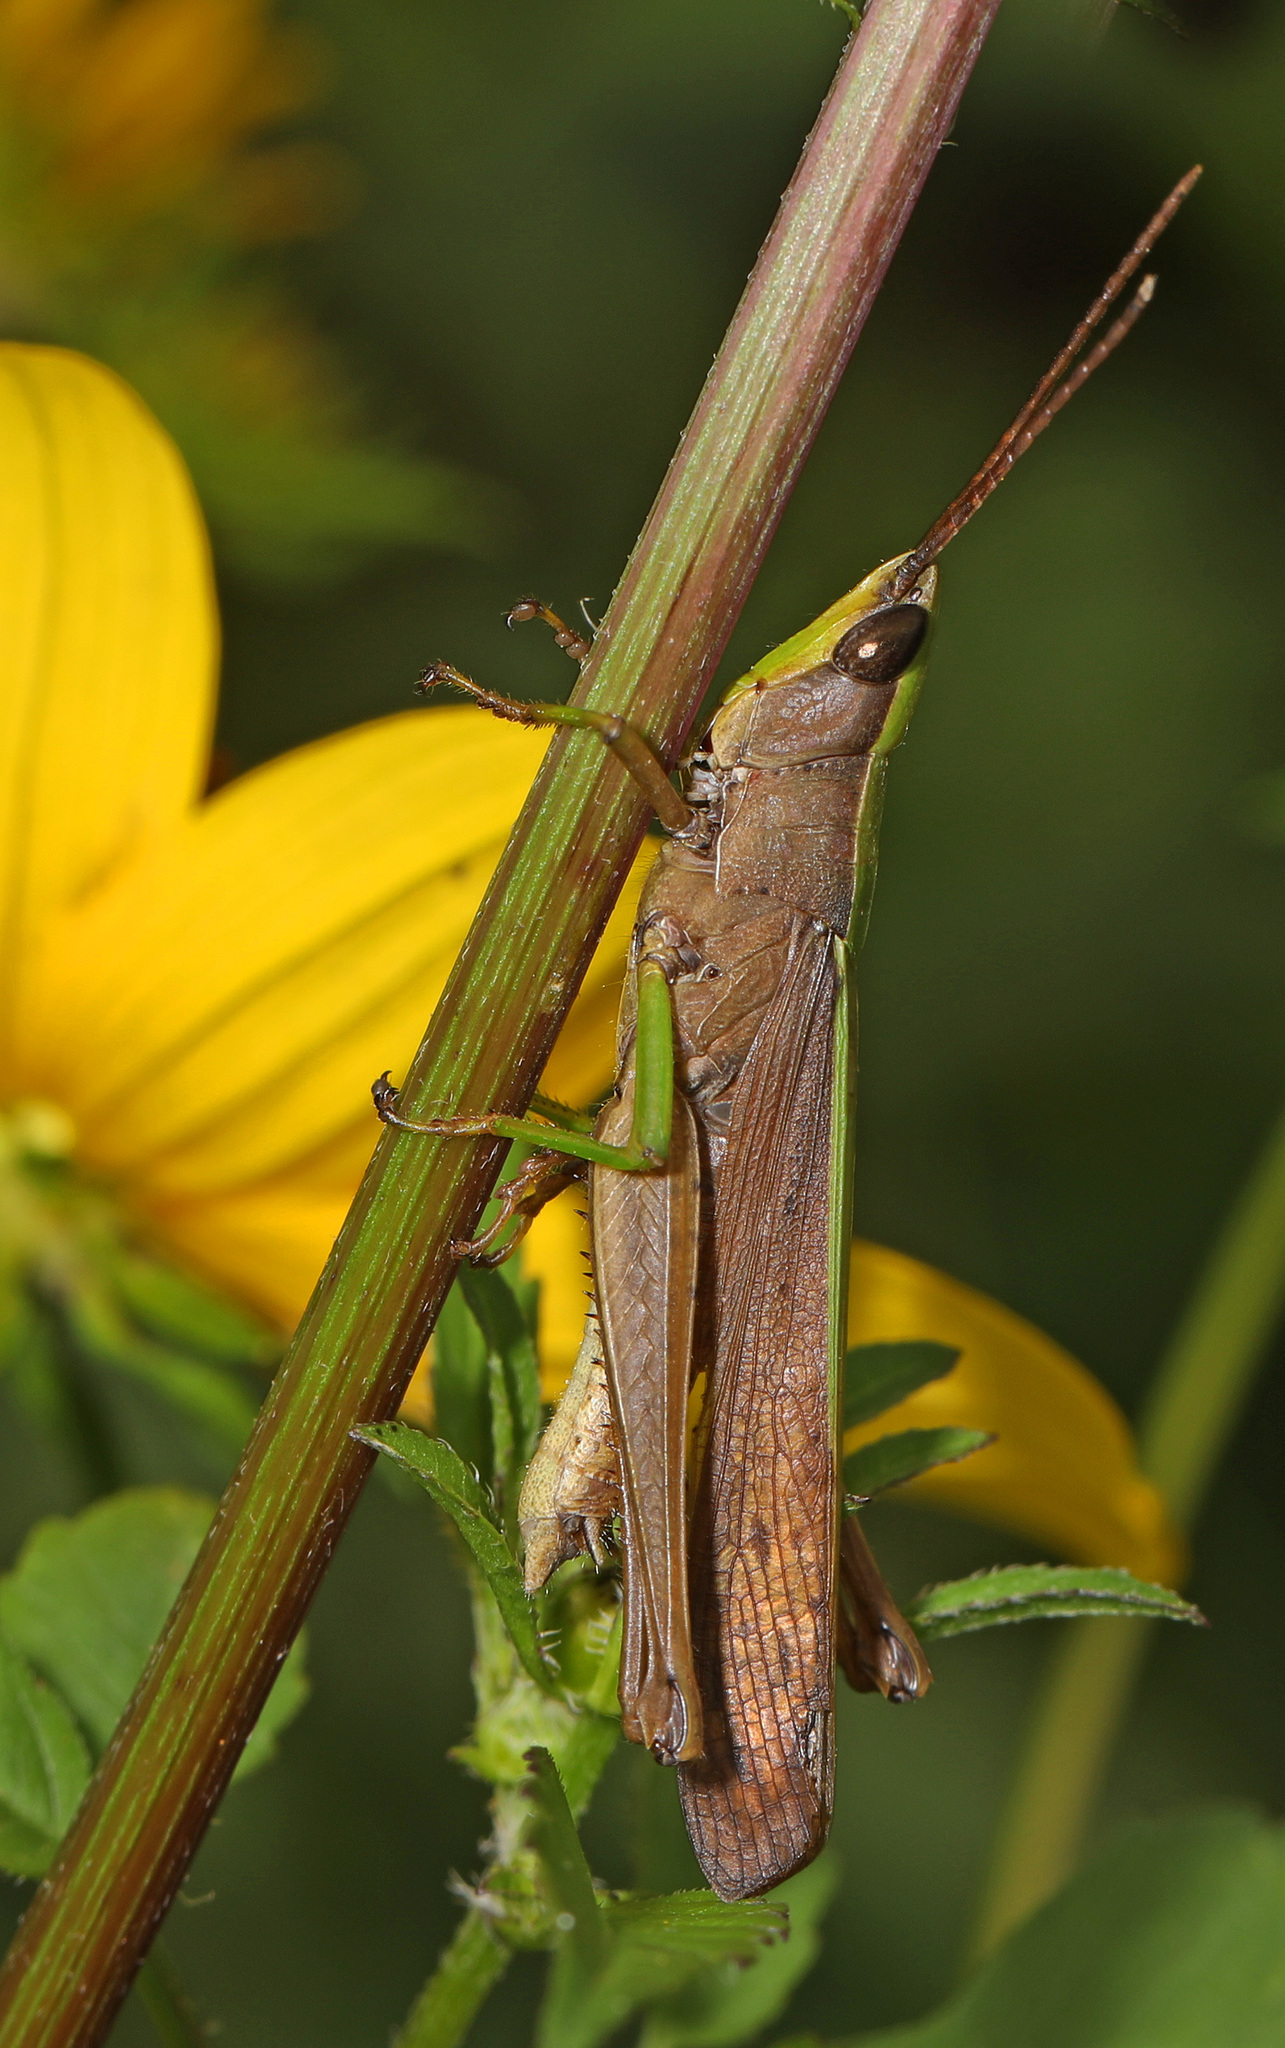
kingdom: Animalia
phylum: Arthropoda
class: Insecta
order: Orthoptera
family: Acrididae
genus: Metaleptea
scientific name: Metaleptea brevicornis
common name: Clipped-wing grasshopper
